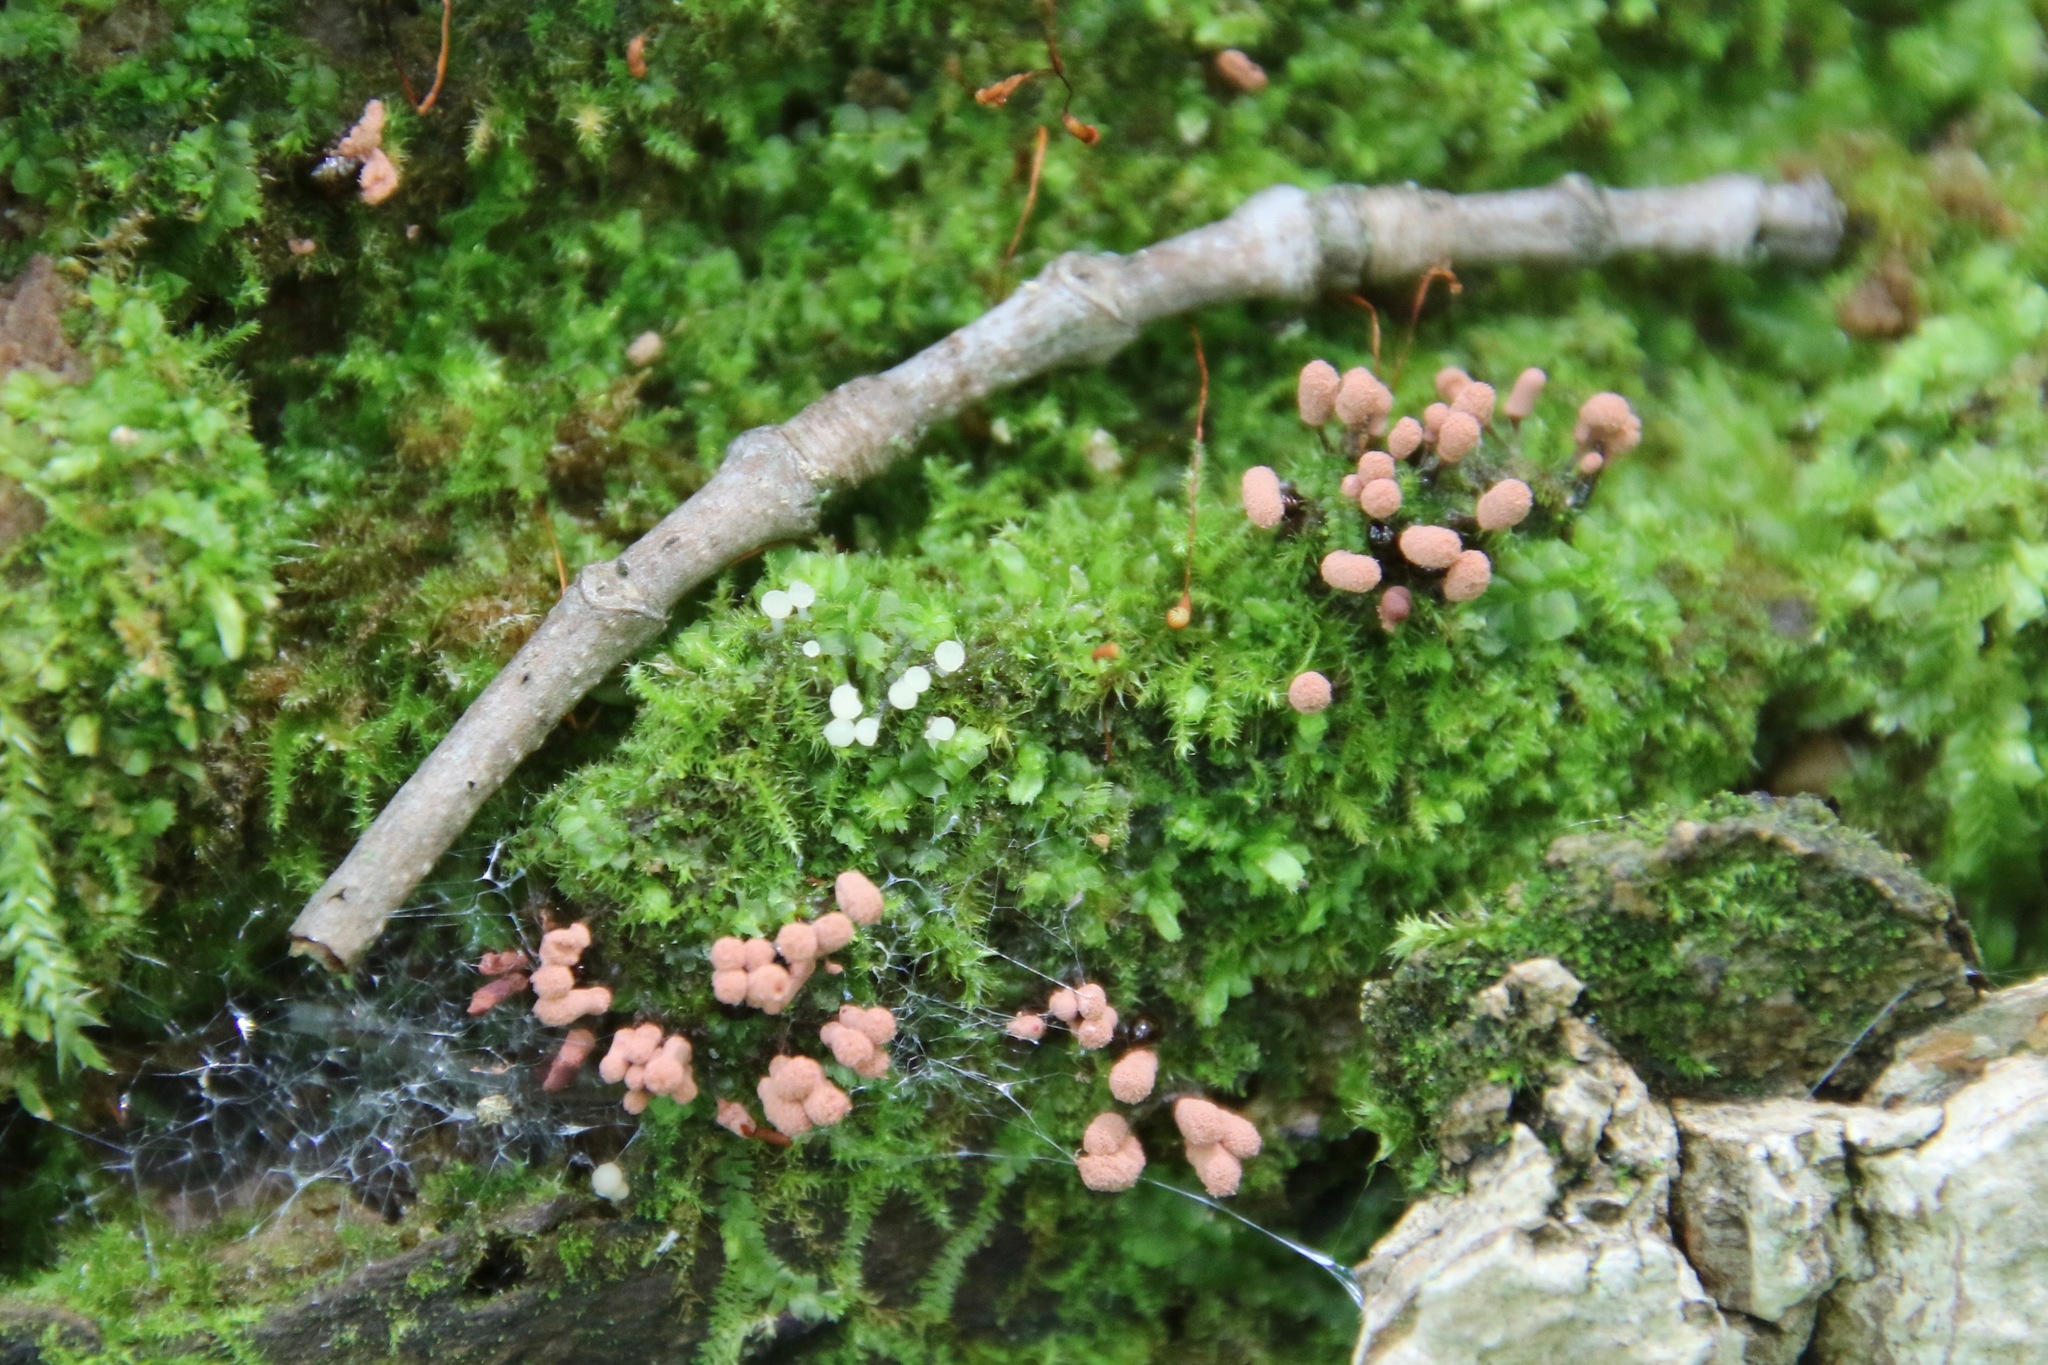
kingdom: Protozoa
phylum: Mycetozoa
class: Myxomycetes
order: Trichiales
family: Arcyriaceae
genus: Arcyria
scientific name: Arcyria denudata
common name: Carnival candy slime mold
